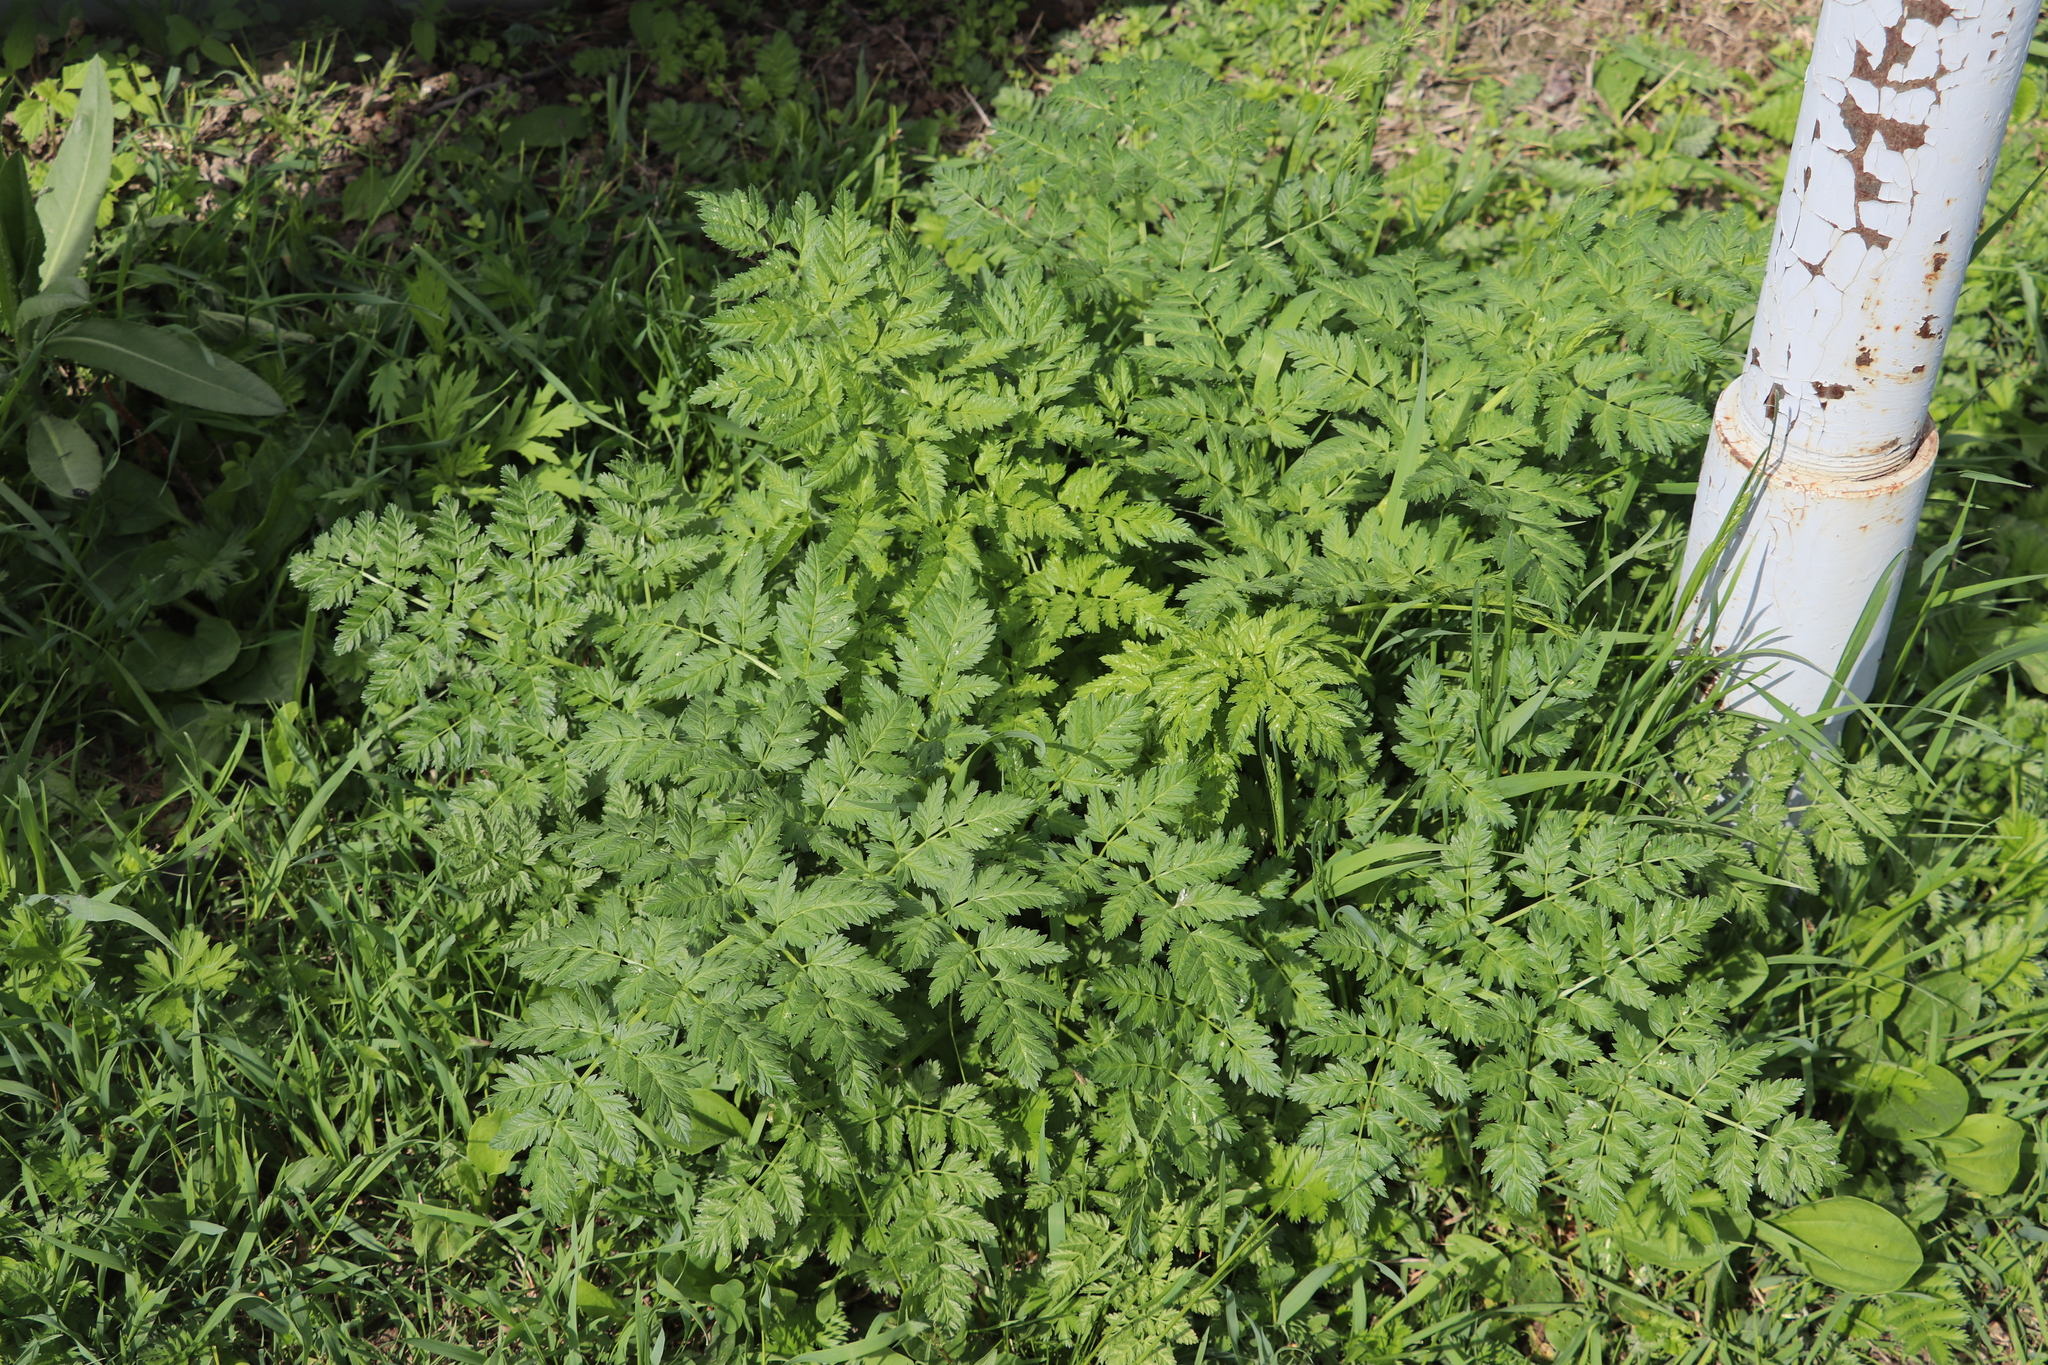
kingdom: Plantae
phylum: Tracheophyta
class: Magnoliopsida
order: Apiales
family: Apiaceae
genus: Anthriscus
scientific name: Anthriscus sylvestris
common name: Cow parsley
